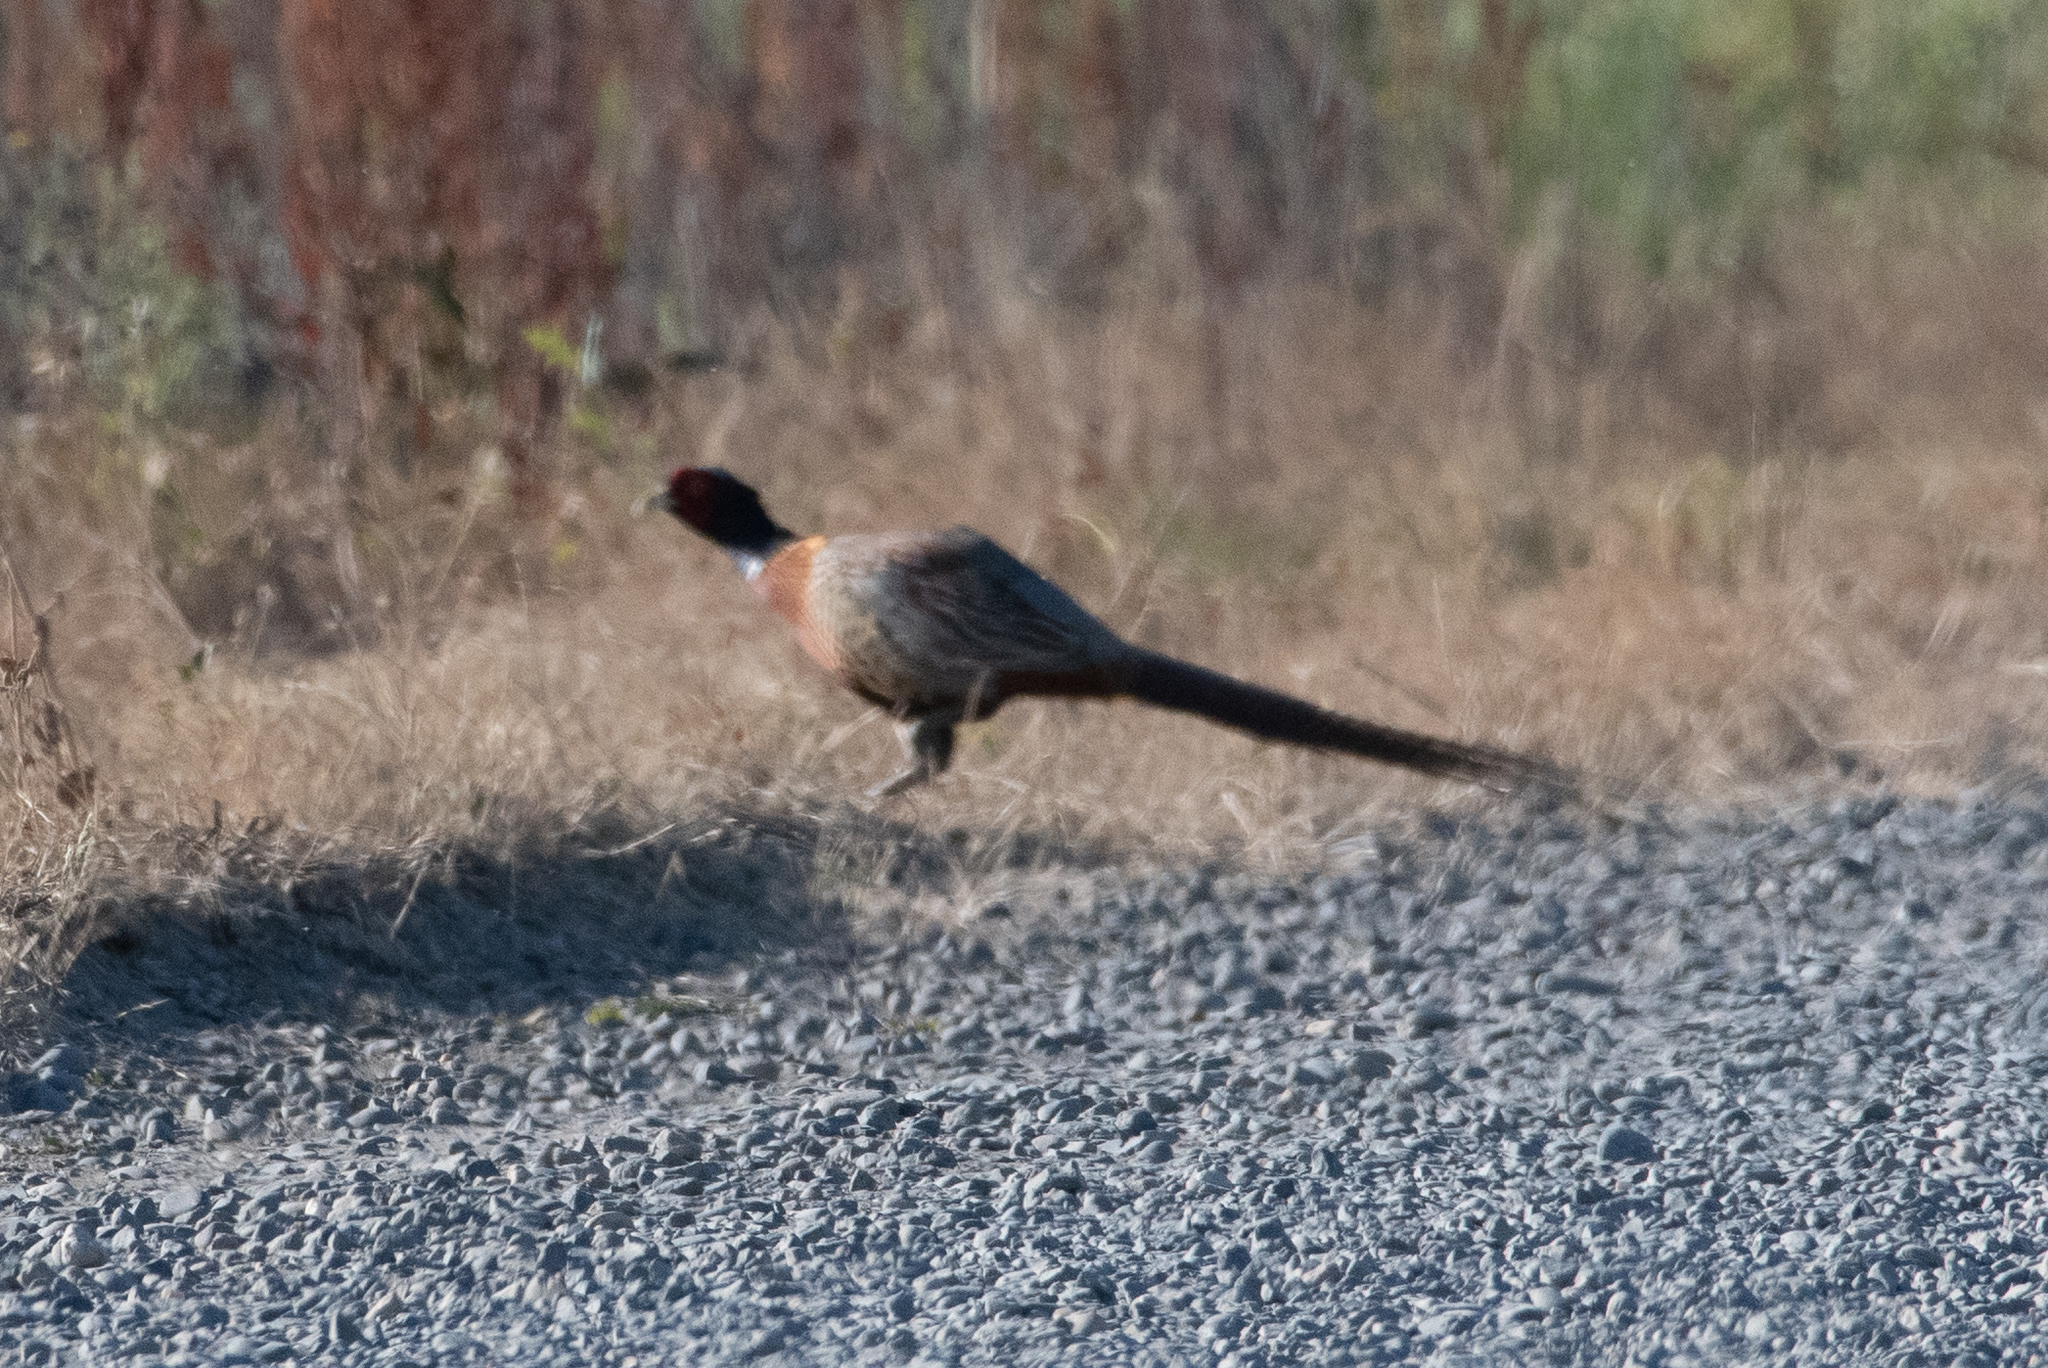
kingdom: Animalia
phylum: Chordata
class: Aves
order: Galliformes
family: Phasianidae
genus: Phasianus
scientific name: Phasianus colchicus
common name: Common pheasant
